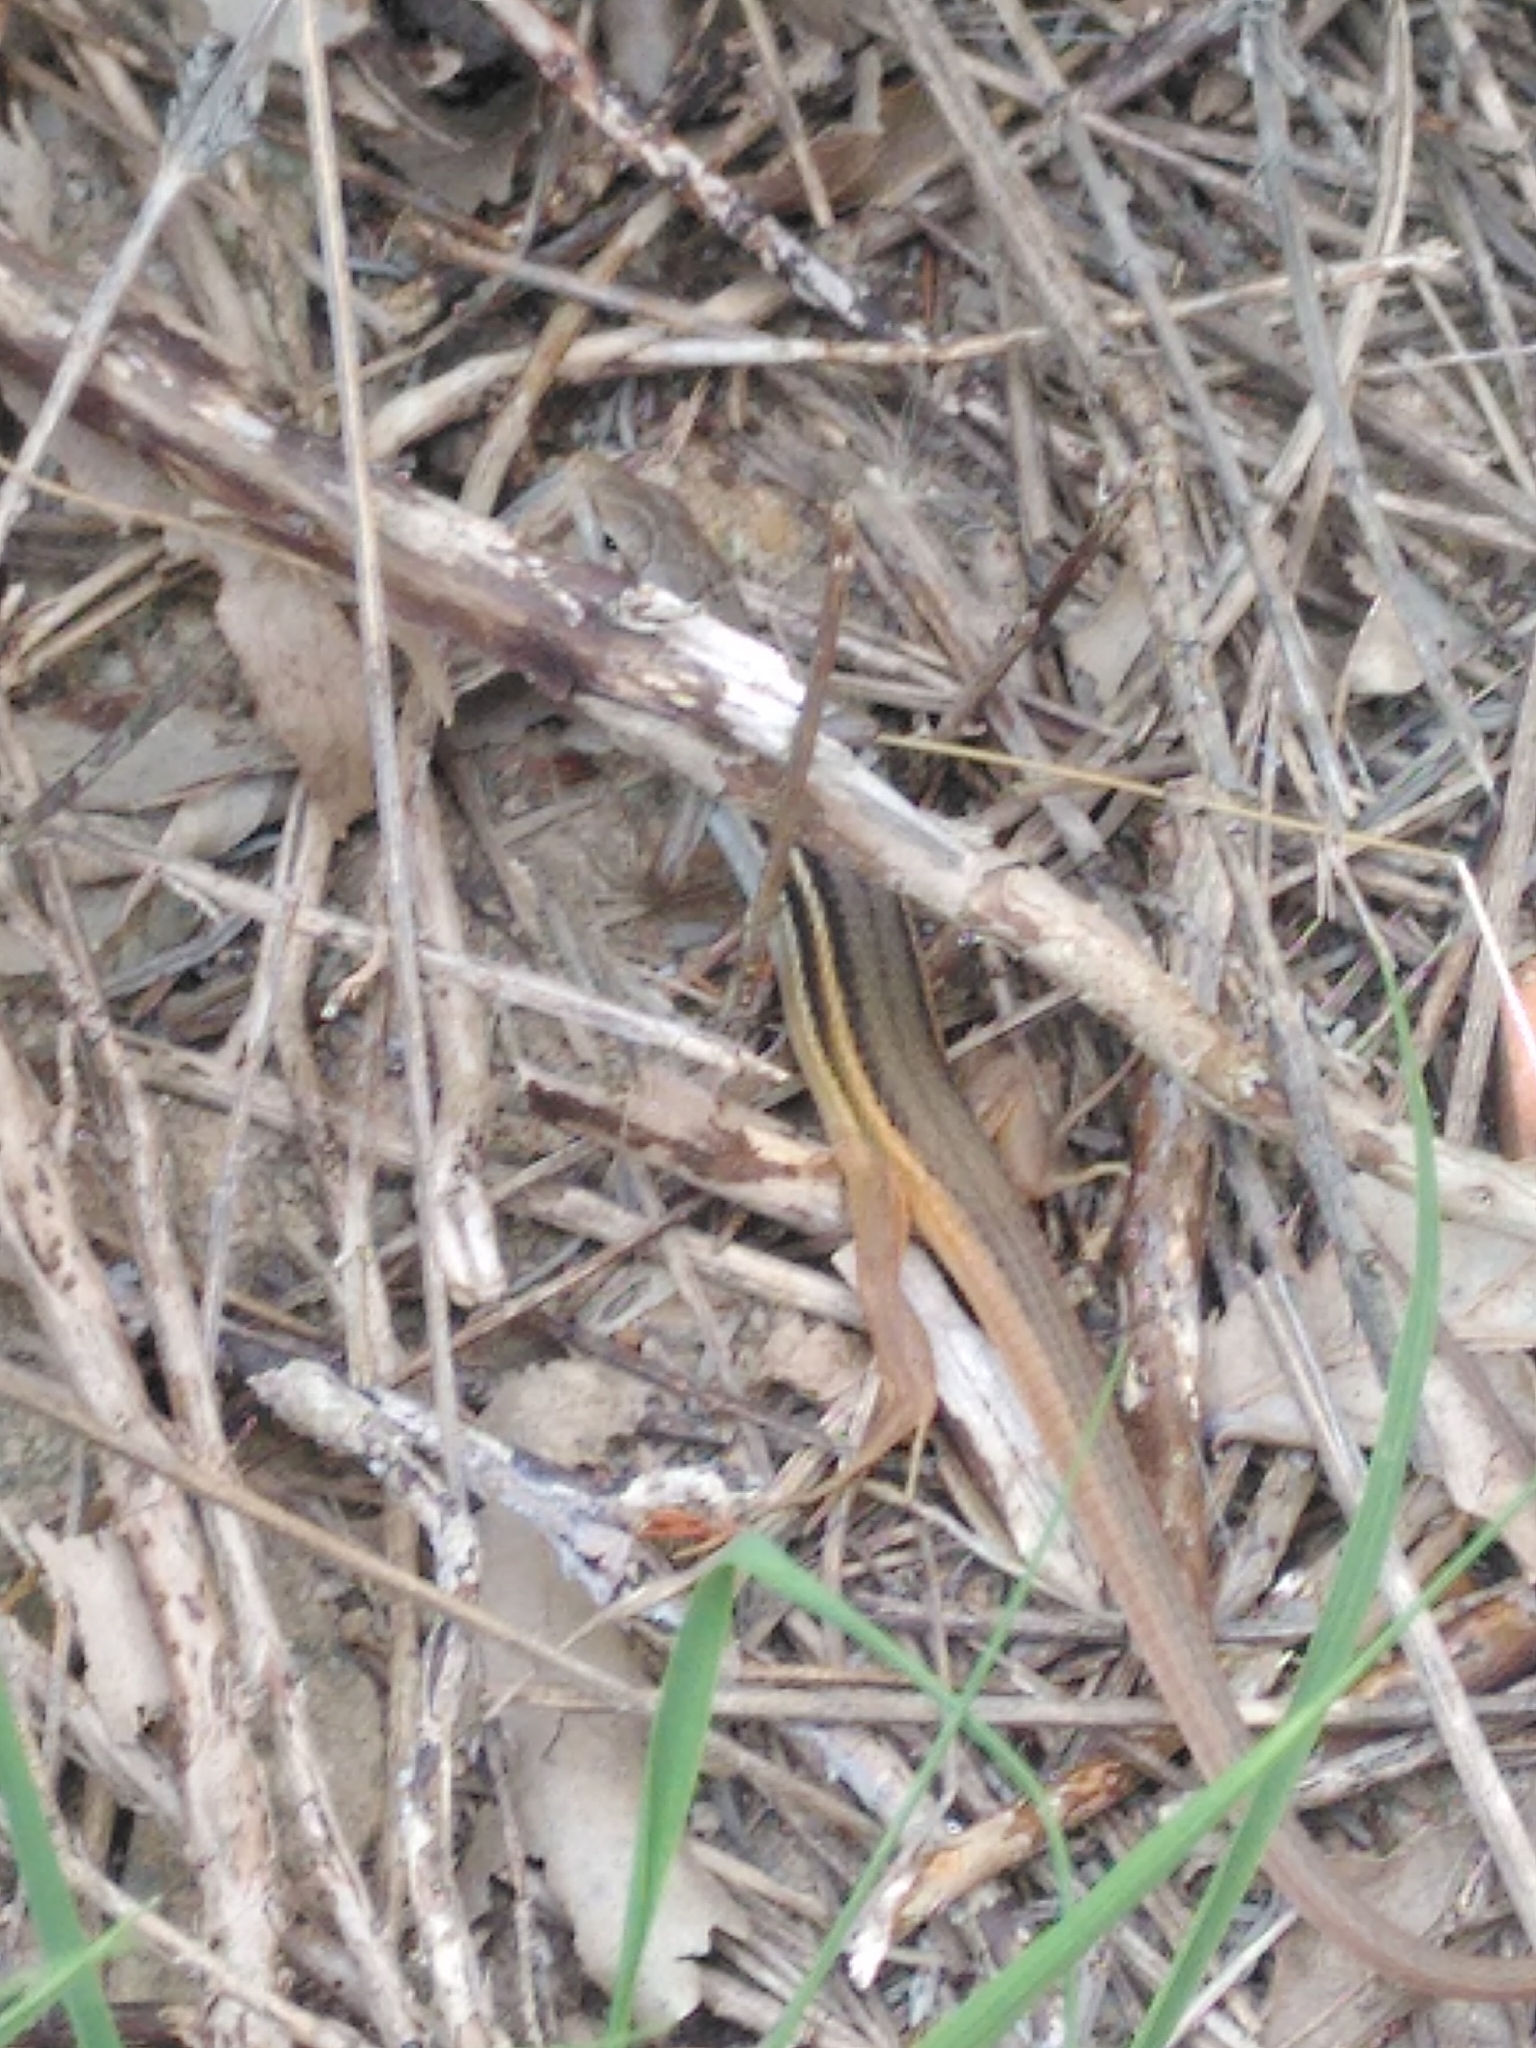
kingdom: Animalia
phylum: Chordata
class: Squamata
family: Lacertidae
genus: Psammodromus
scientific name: Psammodromus algirus
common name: Algerian psammodromus
